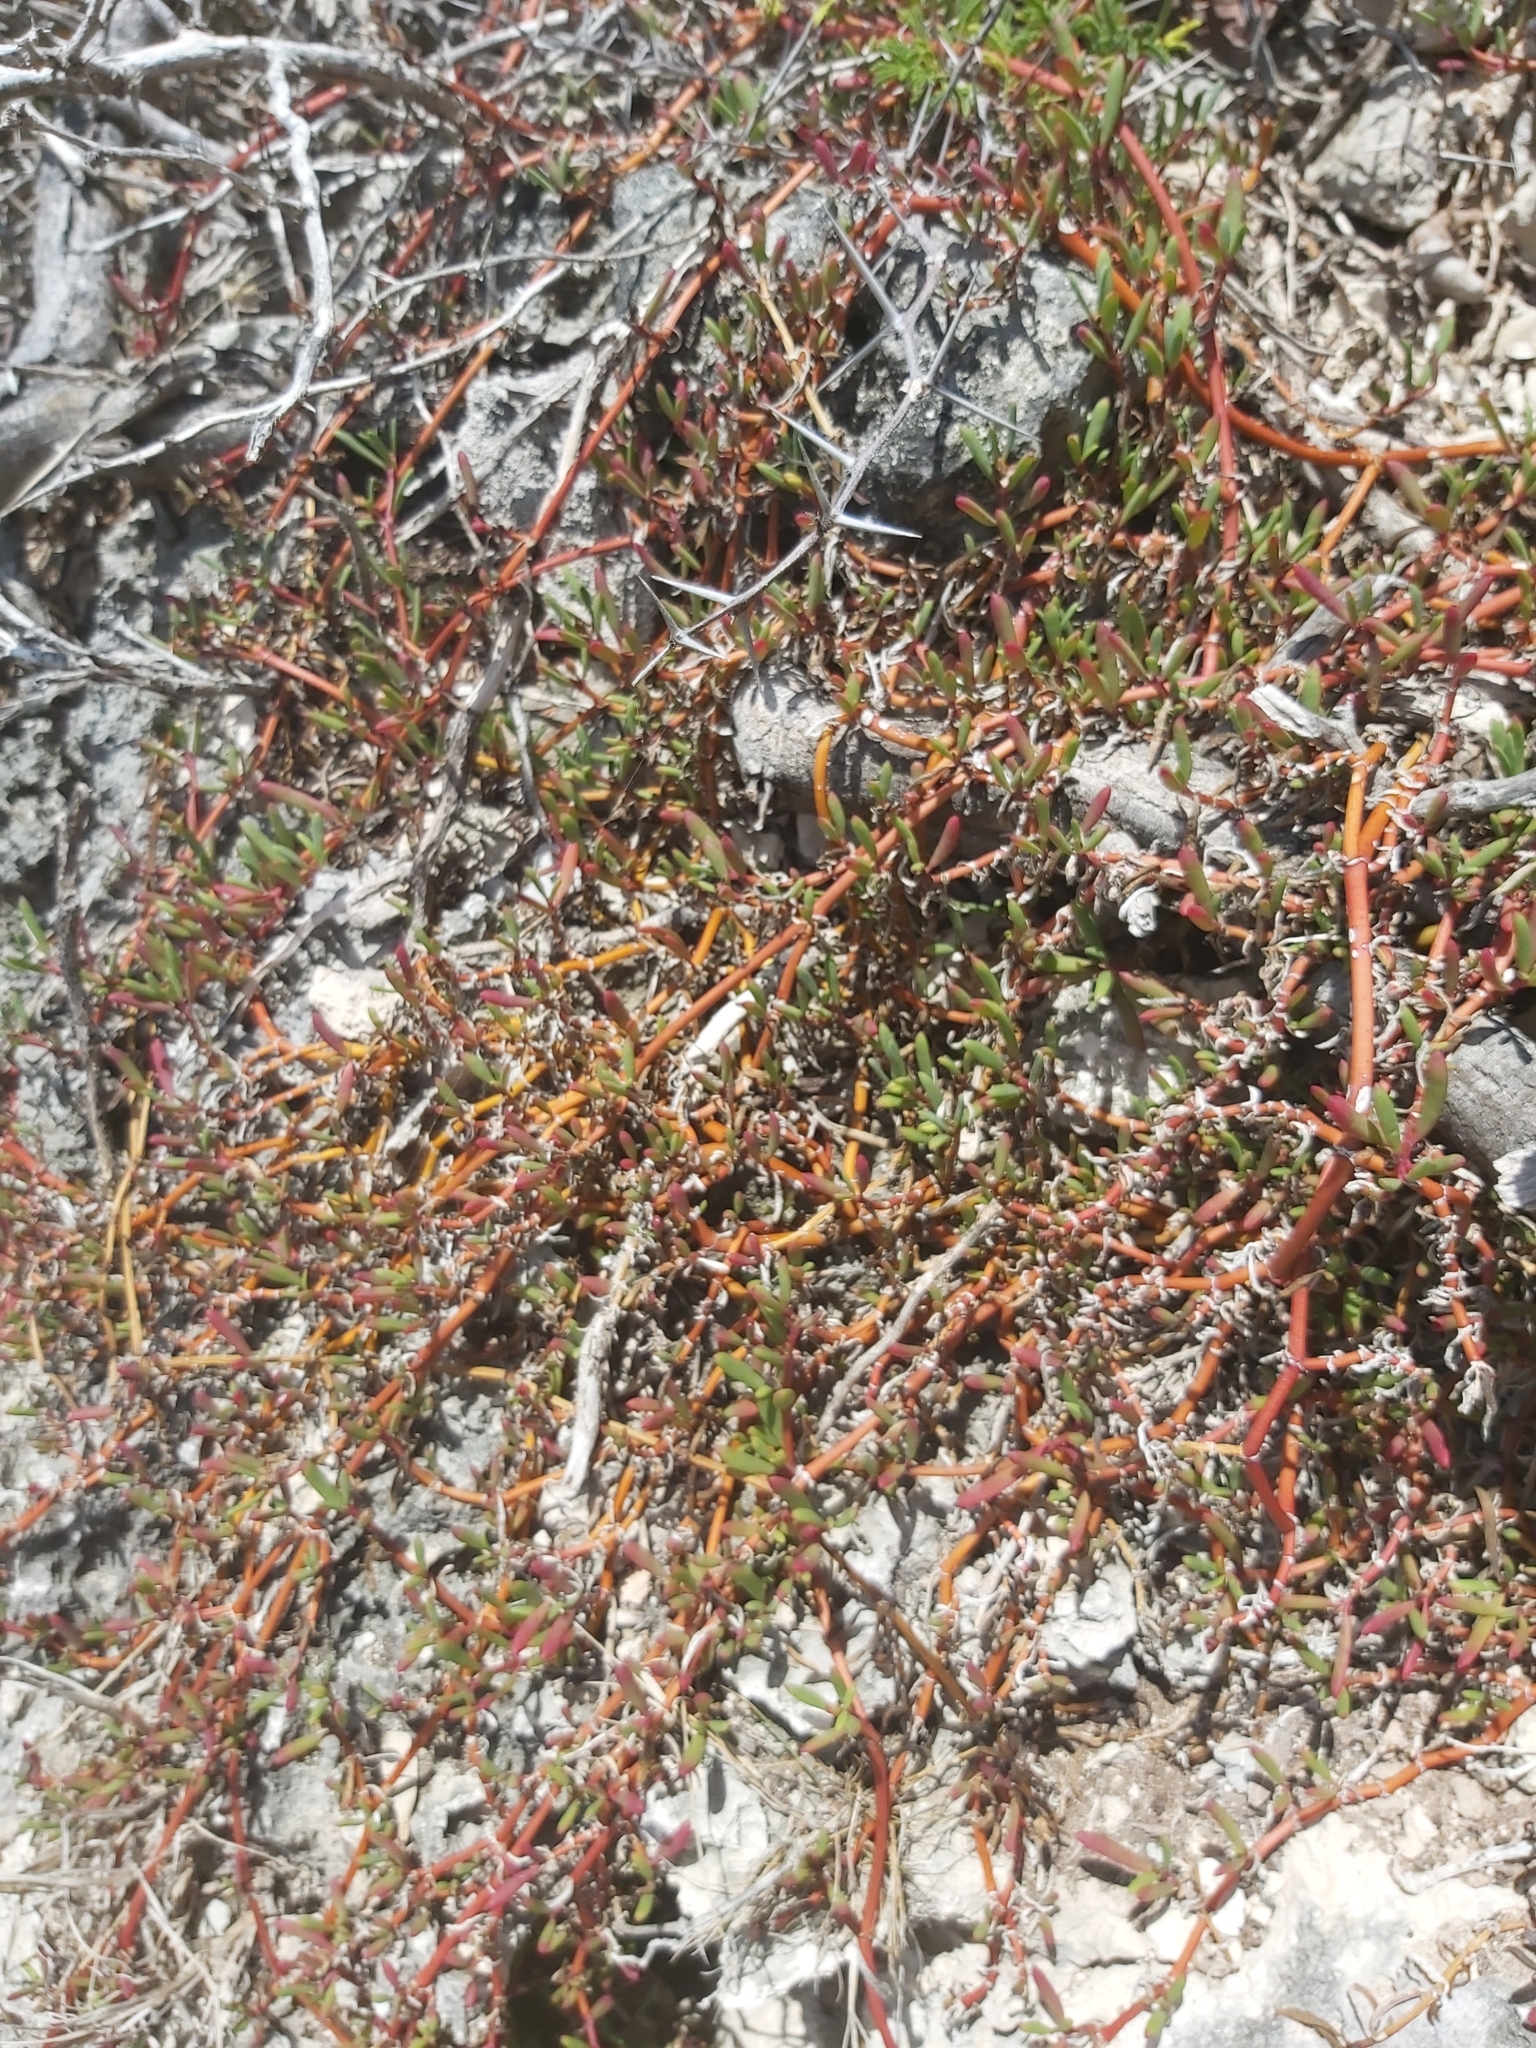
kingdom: Plantae
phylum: Tracheophyta
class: Magnoliopsida
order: Caryophyllales
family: Aizoaceae
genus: Sesuvium
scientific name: Sesuvium portulacastrum
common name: Sea-purslane
